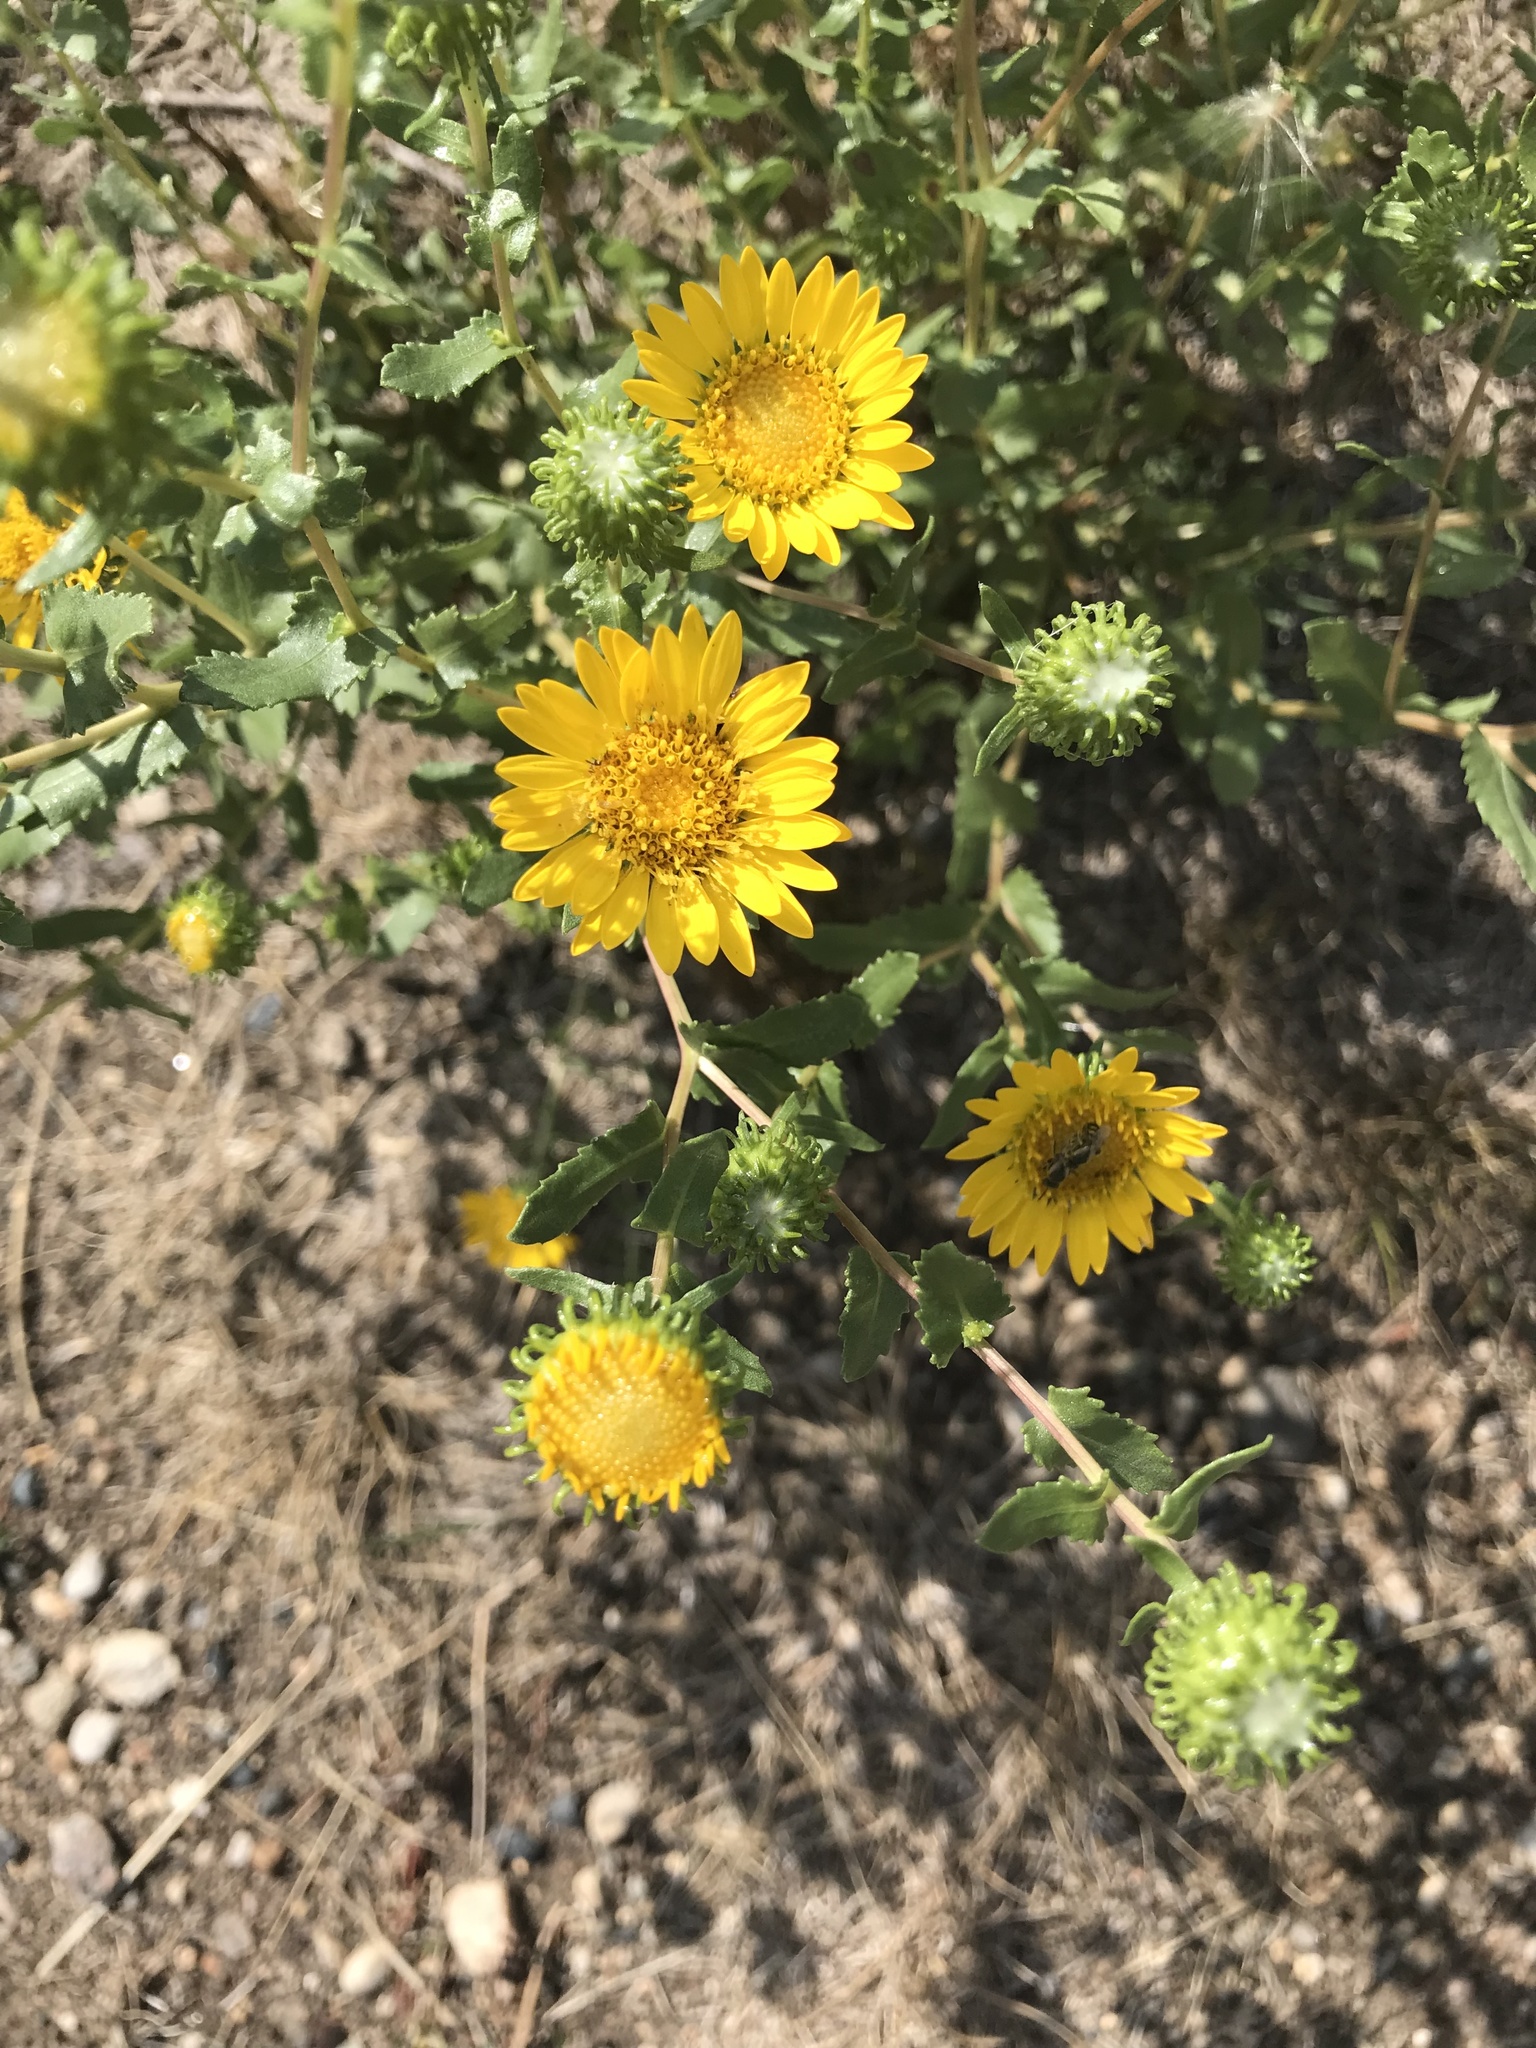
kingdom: Plantae
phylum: Tracheophyta
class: Magnoliopsida
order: Asterales
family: Asteraceae
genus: Grindelia
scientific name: Grindelia squarrosa
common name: Curly-cup gumweed
